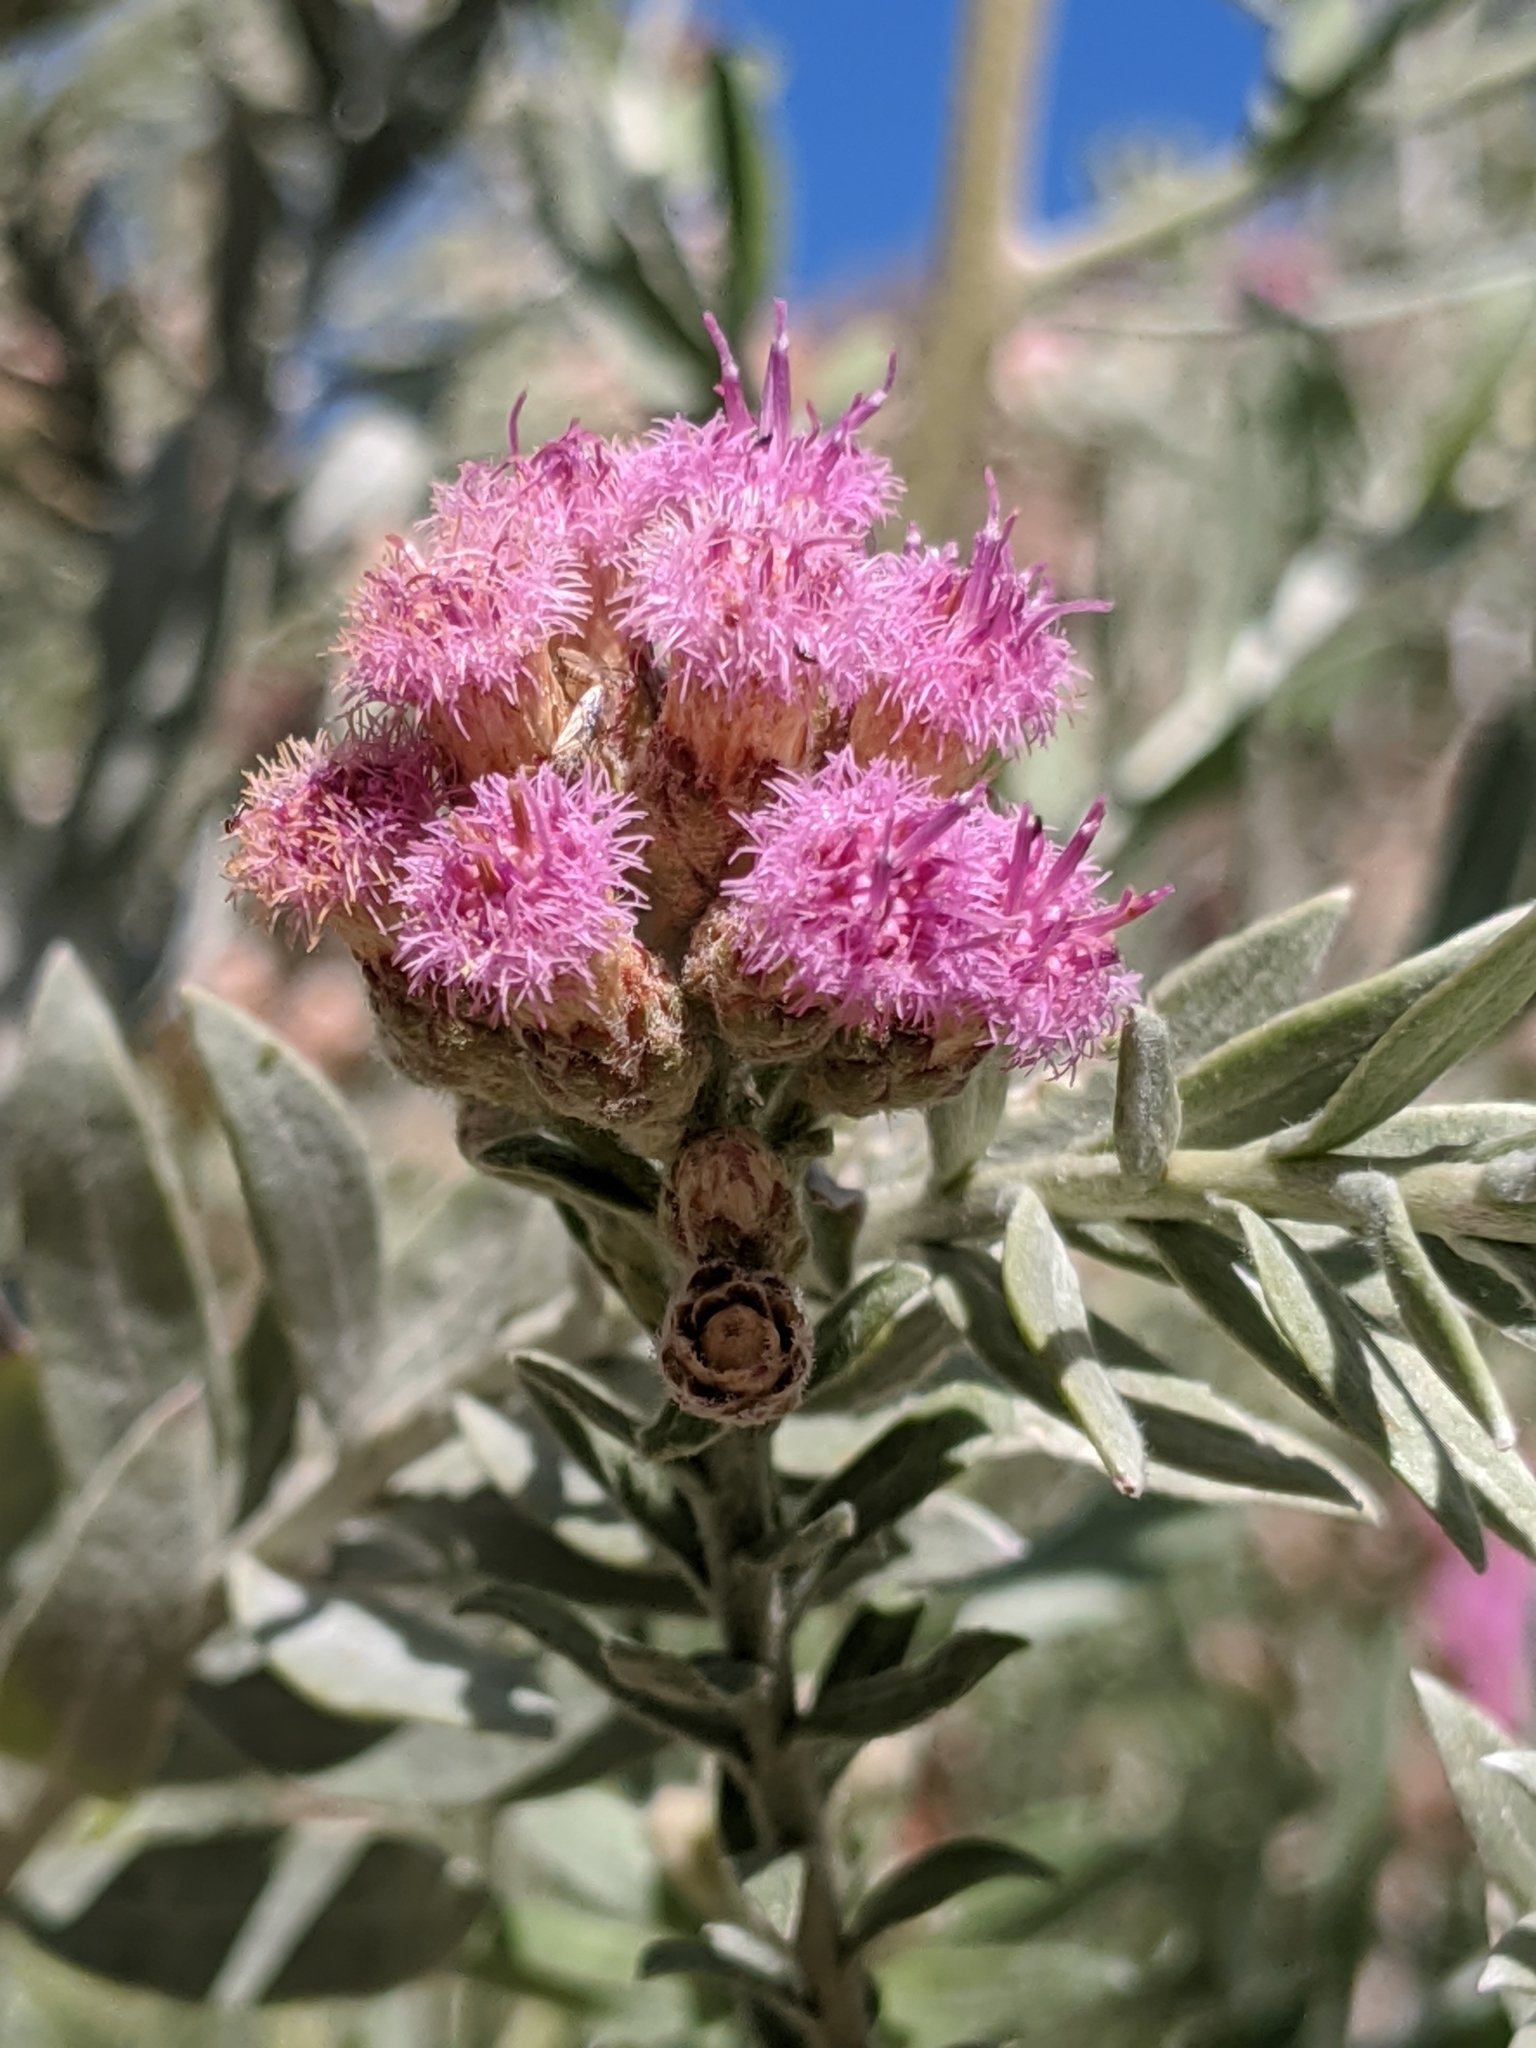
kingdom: Plantae
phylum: Tracheophyta
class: Magnoliopsida
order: Asterales
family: Asteraceae
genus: Pluchea
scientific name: Pluchea sericea
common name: Arrow-weed
